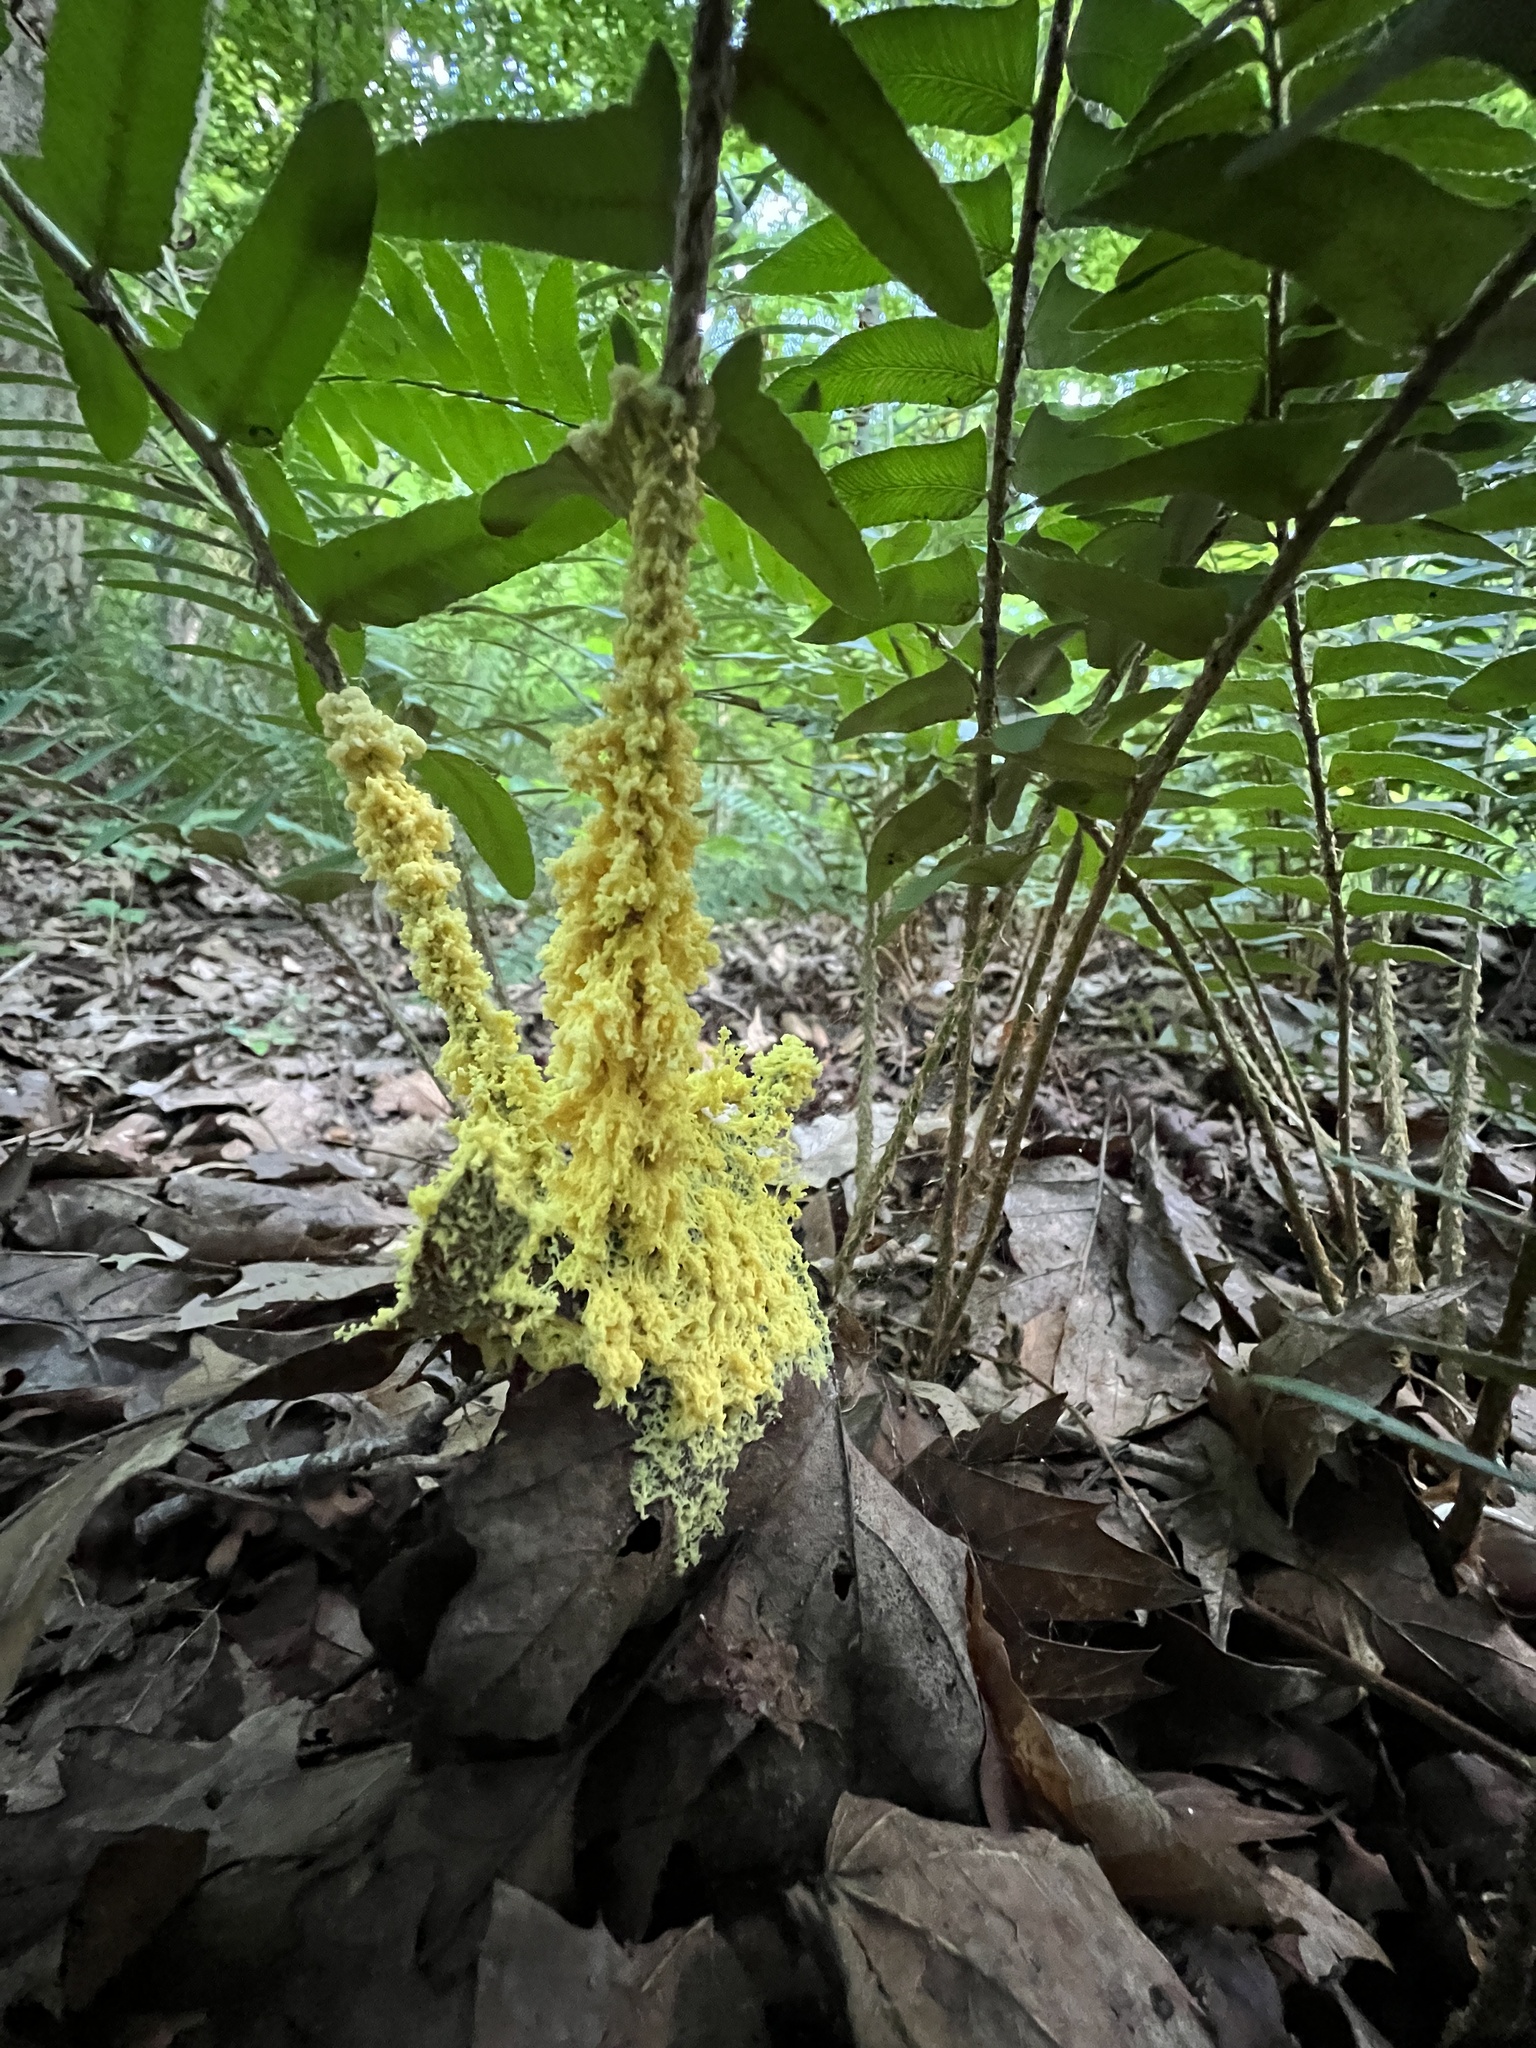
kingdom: Protozoa
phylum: Mycetozoa
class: Myxomycetes
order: Physarales
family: Physaraceae
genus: Fuligo
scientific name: Fuligo septica
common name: Dog vomit slime mold
